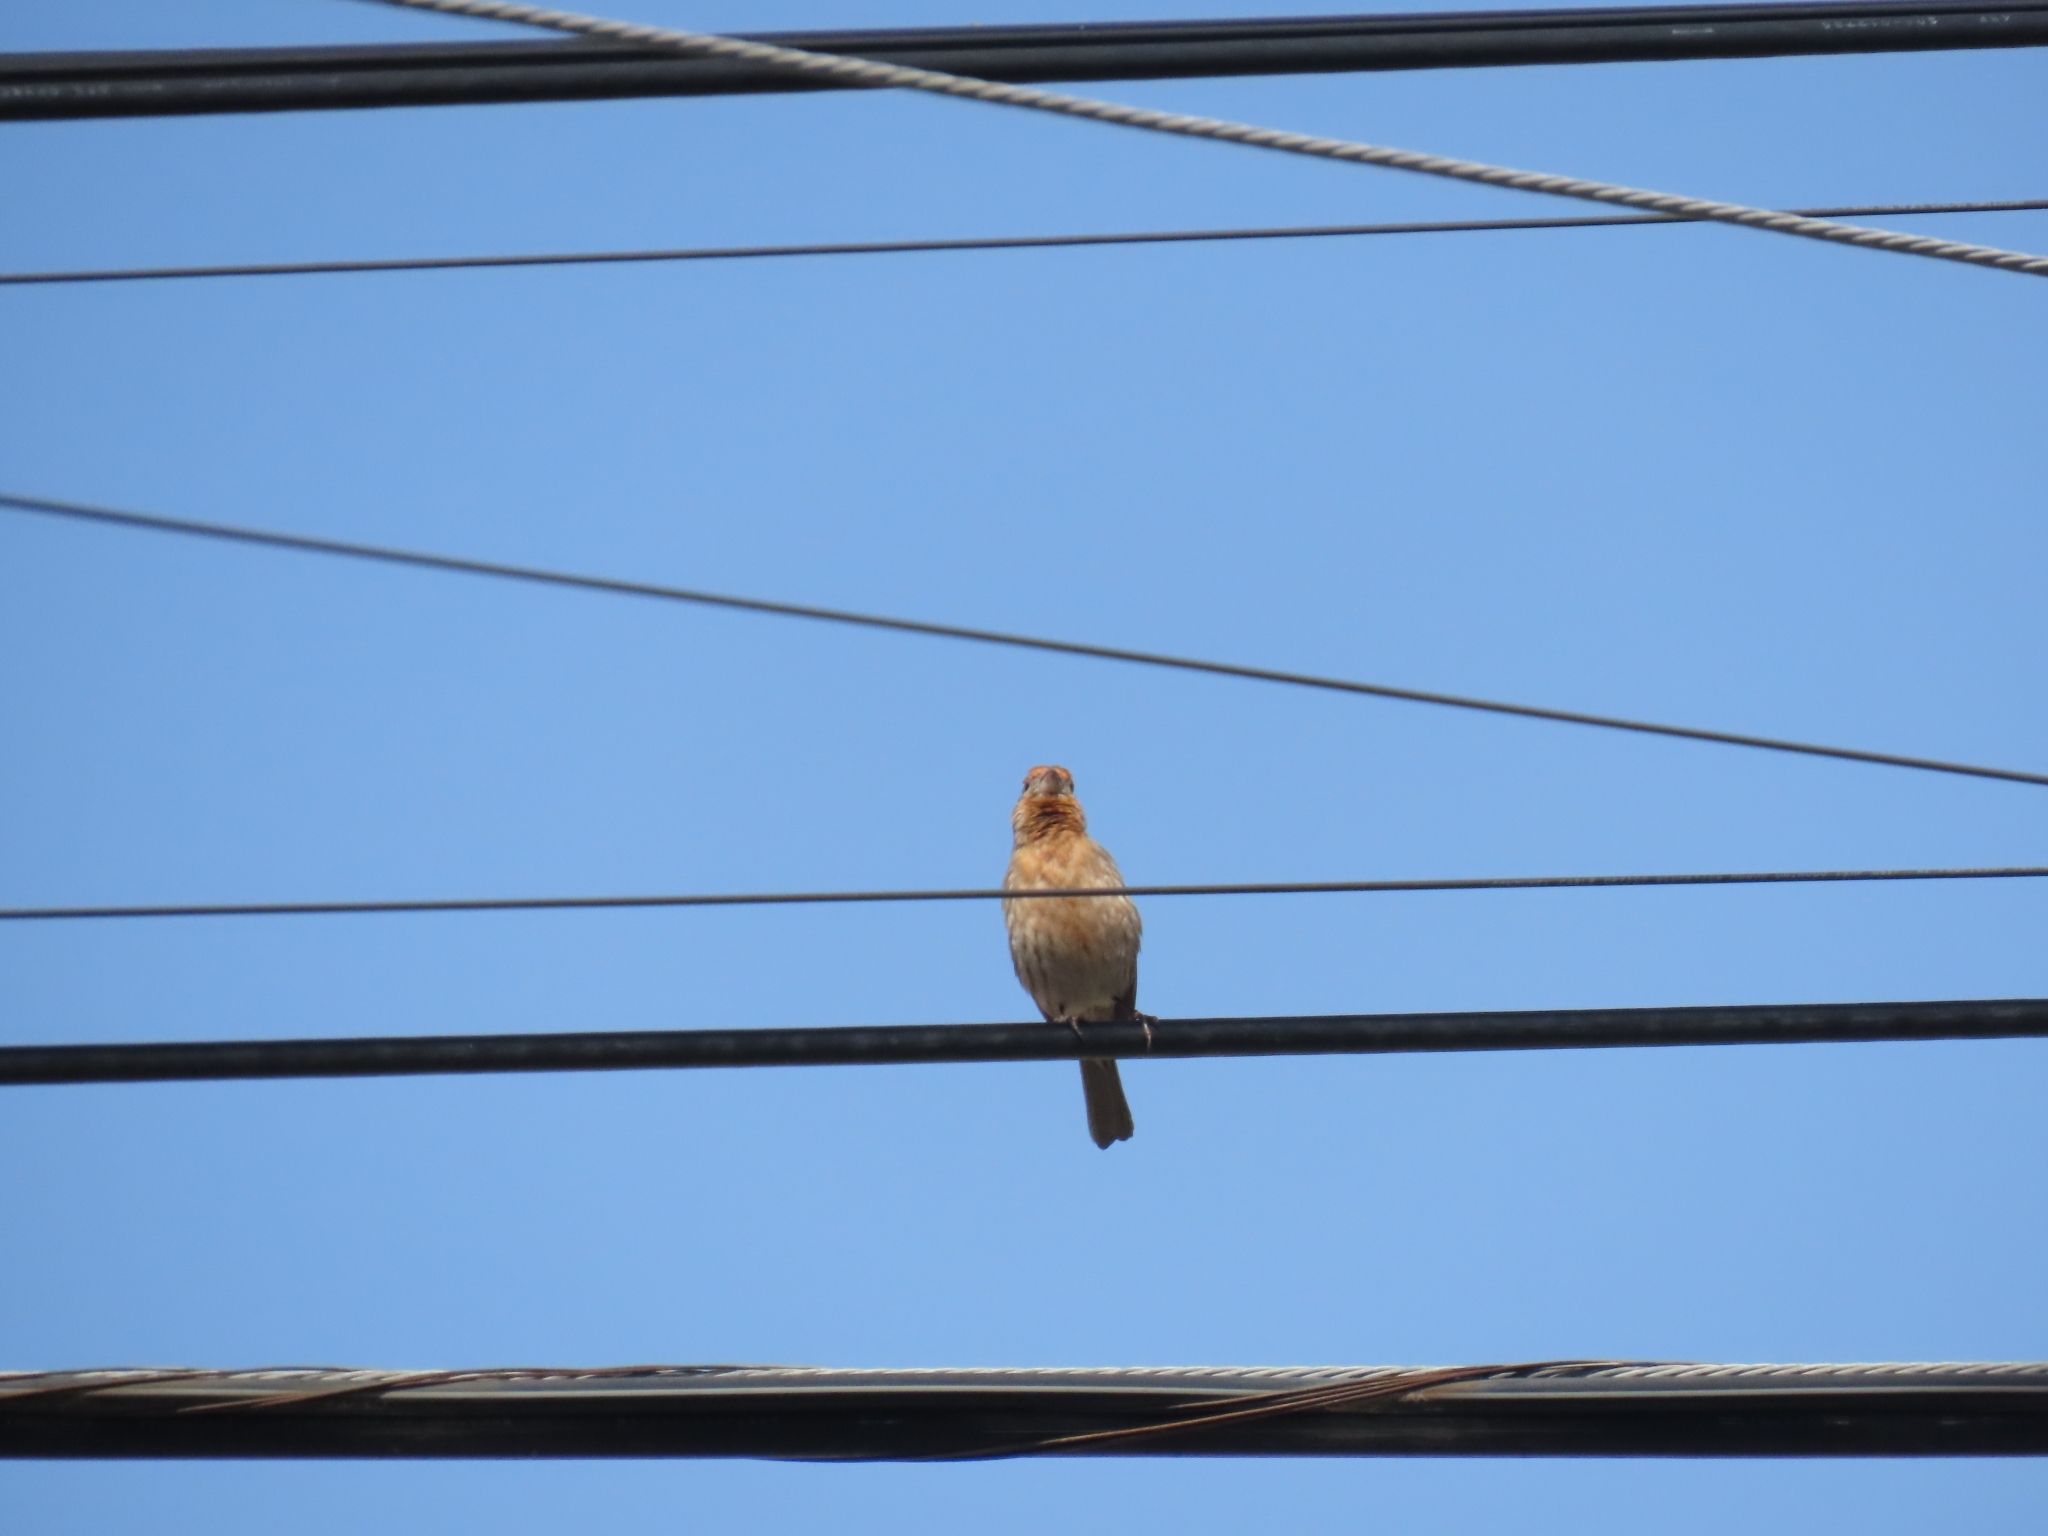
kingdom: Animalia
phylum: Chordata
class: Aves
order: Passeriformes
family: Fringillidae
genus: Haemorhous
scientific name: Haemorhous mexicanus
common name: House finch
